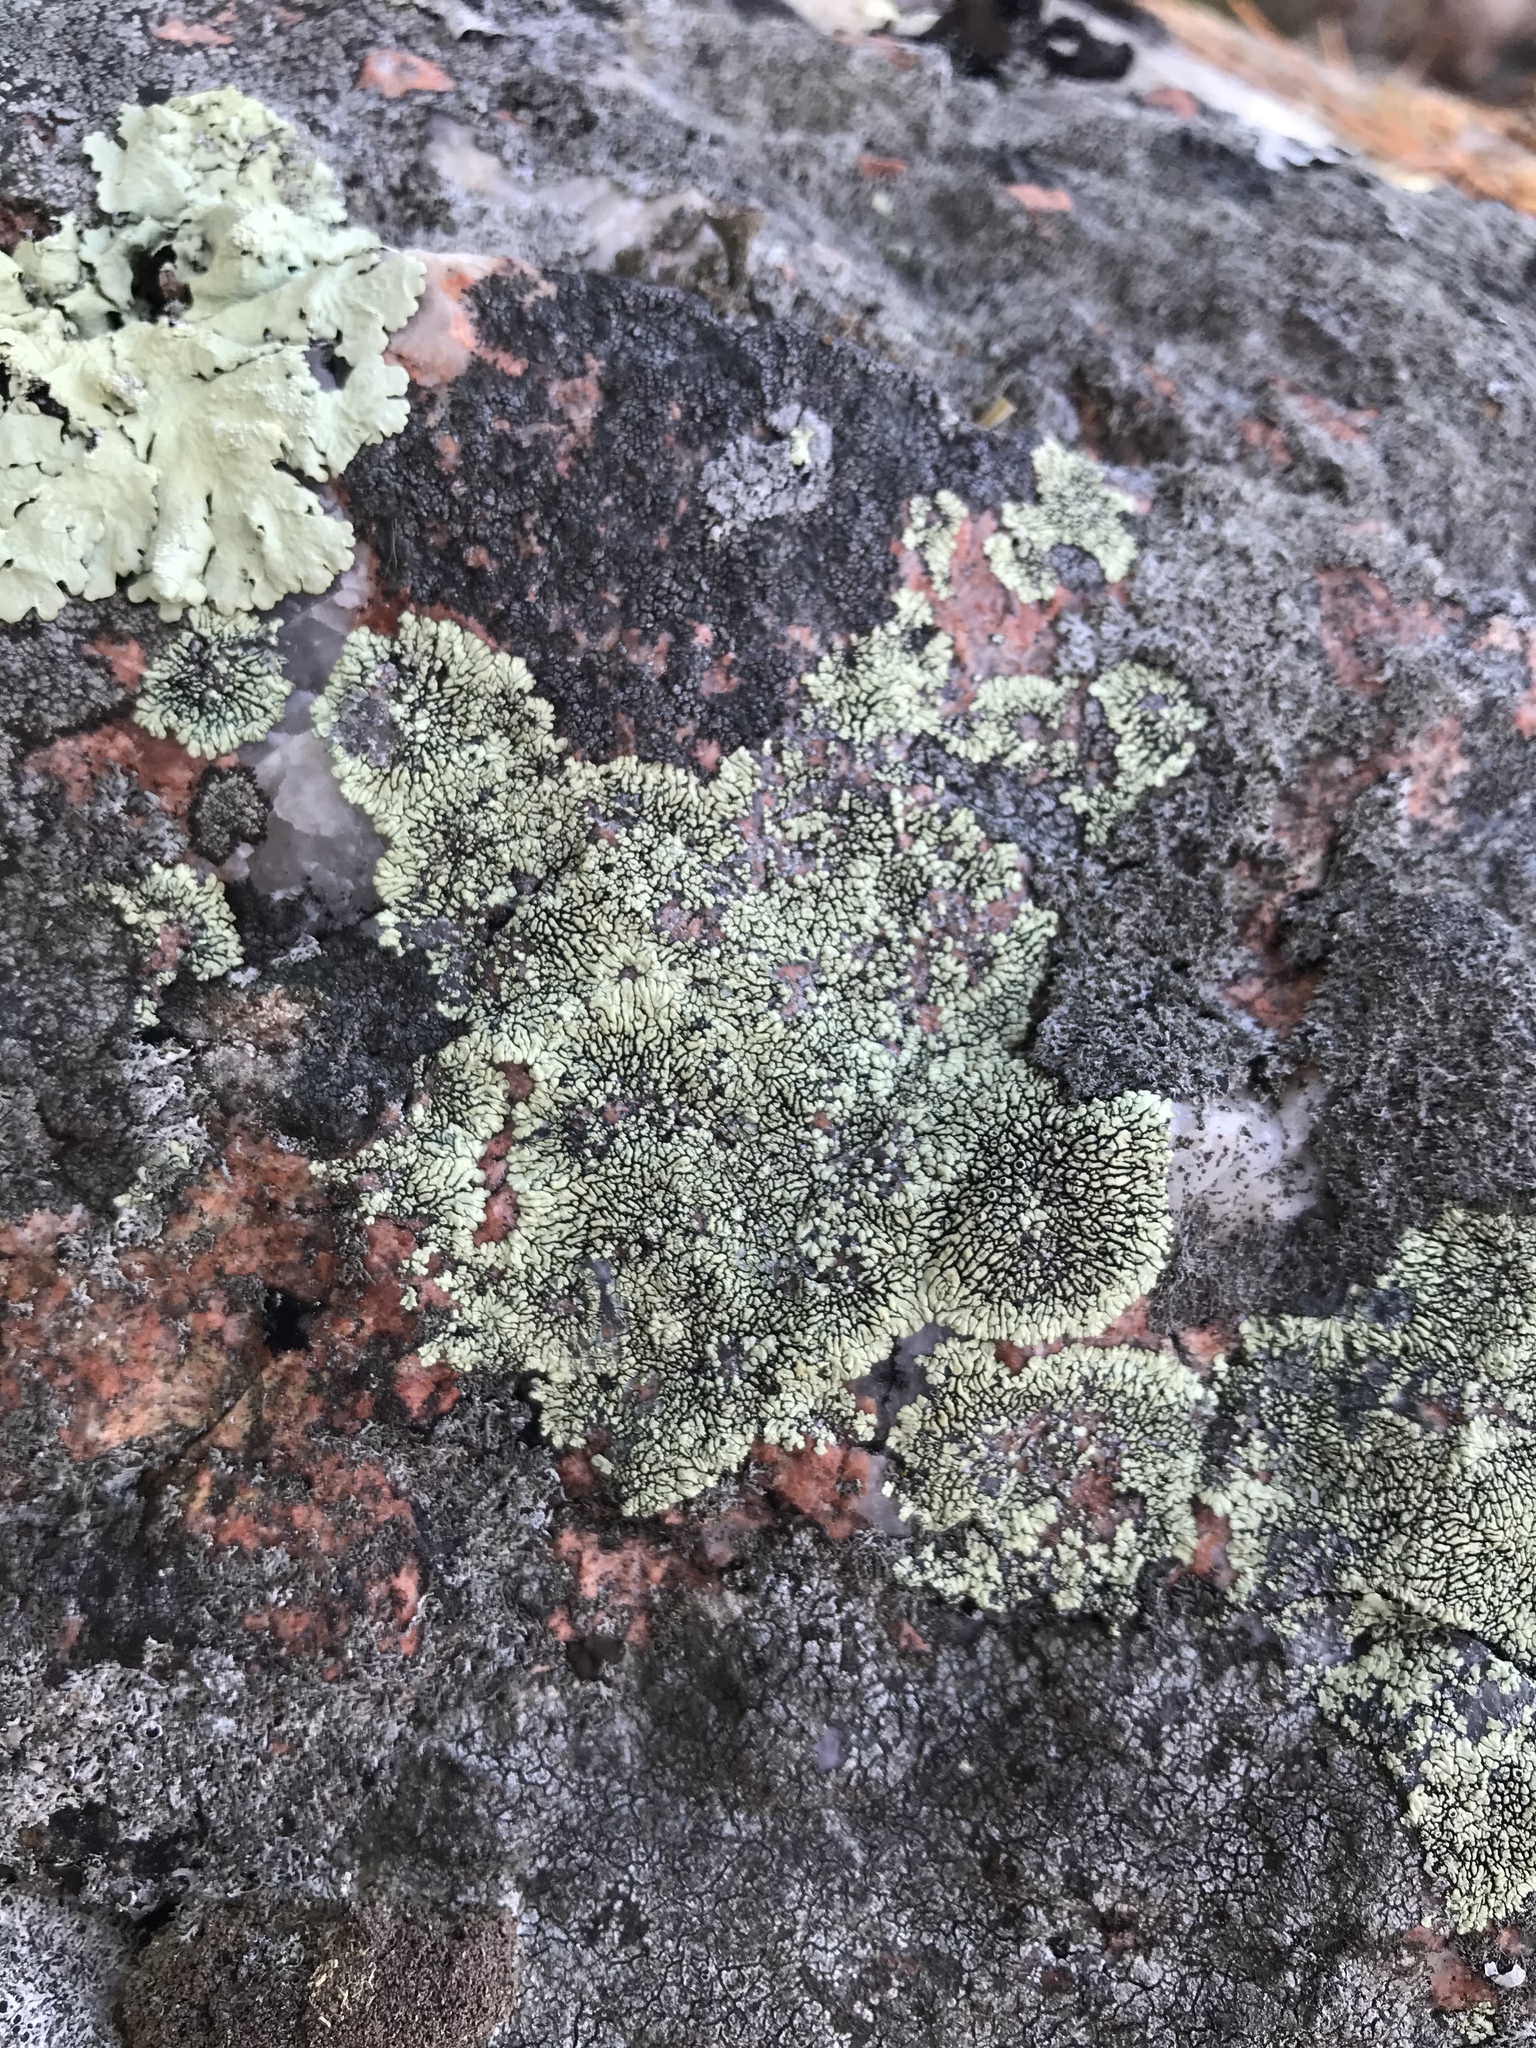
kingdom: Fungi
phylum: Ascomycota
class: Lecanoromycetes
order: Caliciales
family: Caliciaceae
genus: Dimelaena
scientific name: Dimelaena oreina
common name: Golden moonglow lichen
